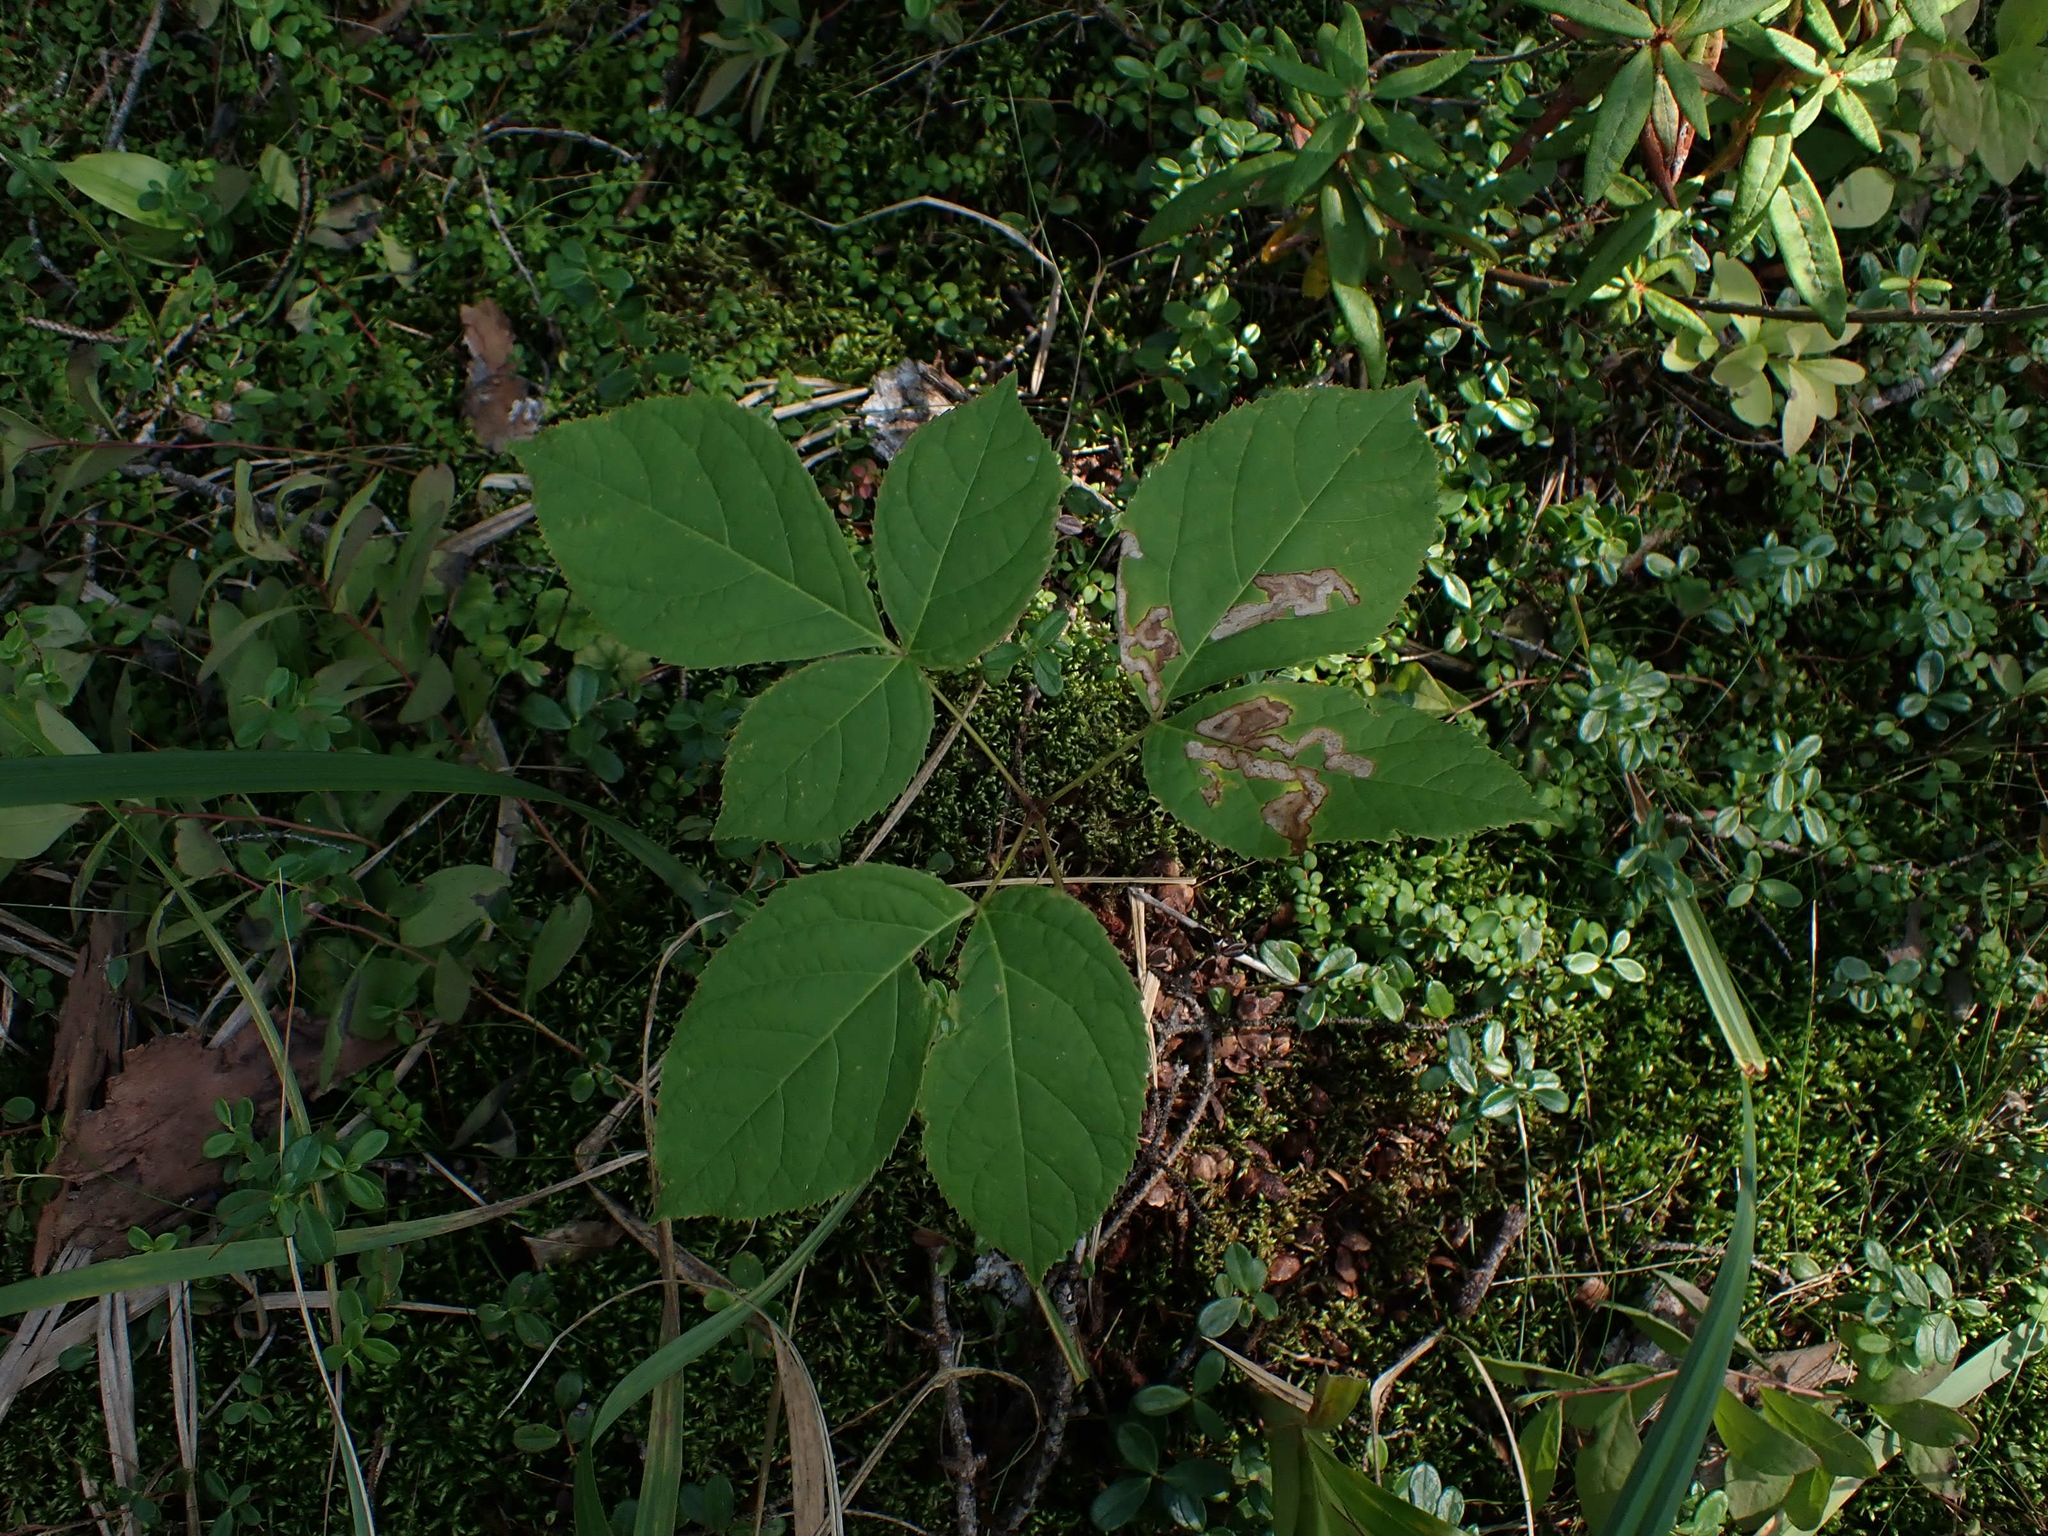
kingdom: Plantae
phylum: Tracheophyta
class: Magnoliopsida
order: Apiales
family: Araliaceae
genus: Aralia
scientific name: Aralia nudicaulis
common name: Wild sarsaparilla
